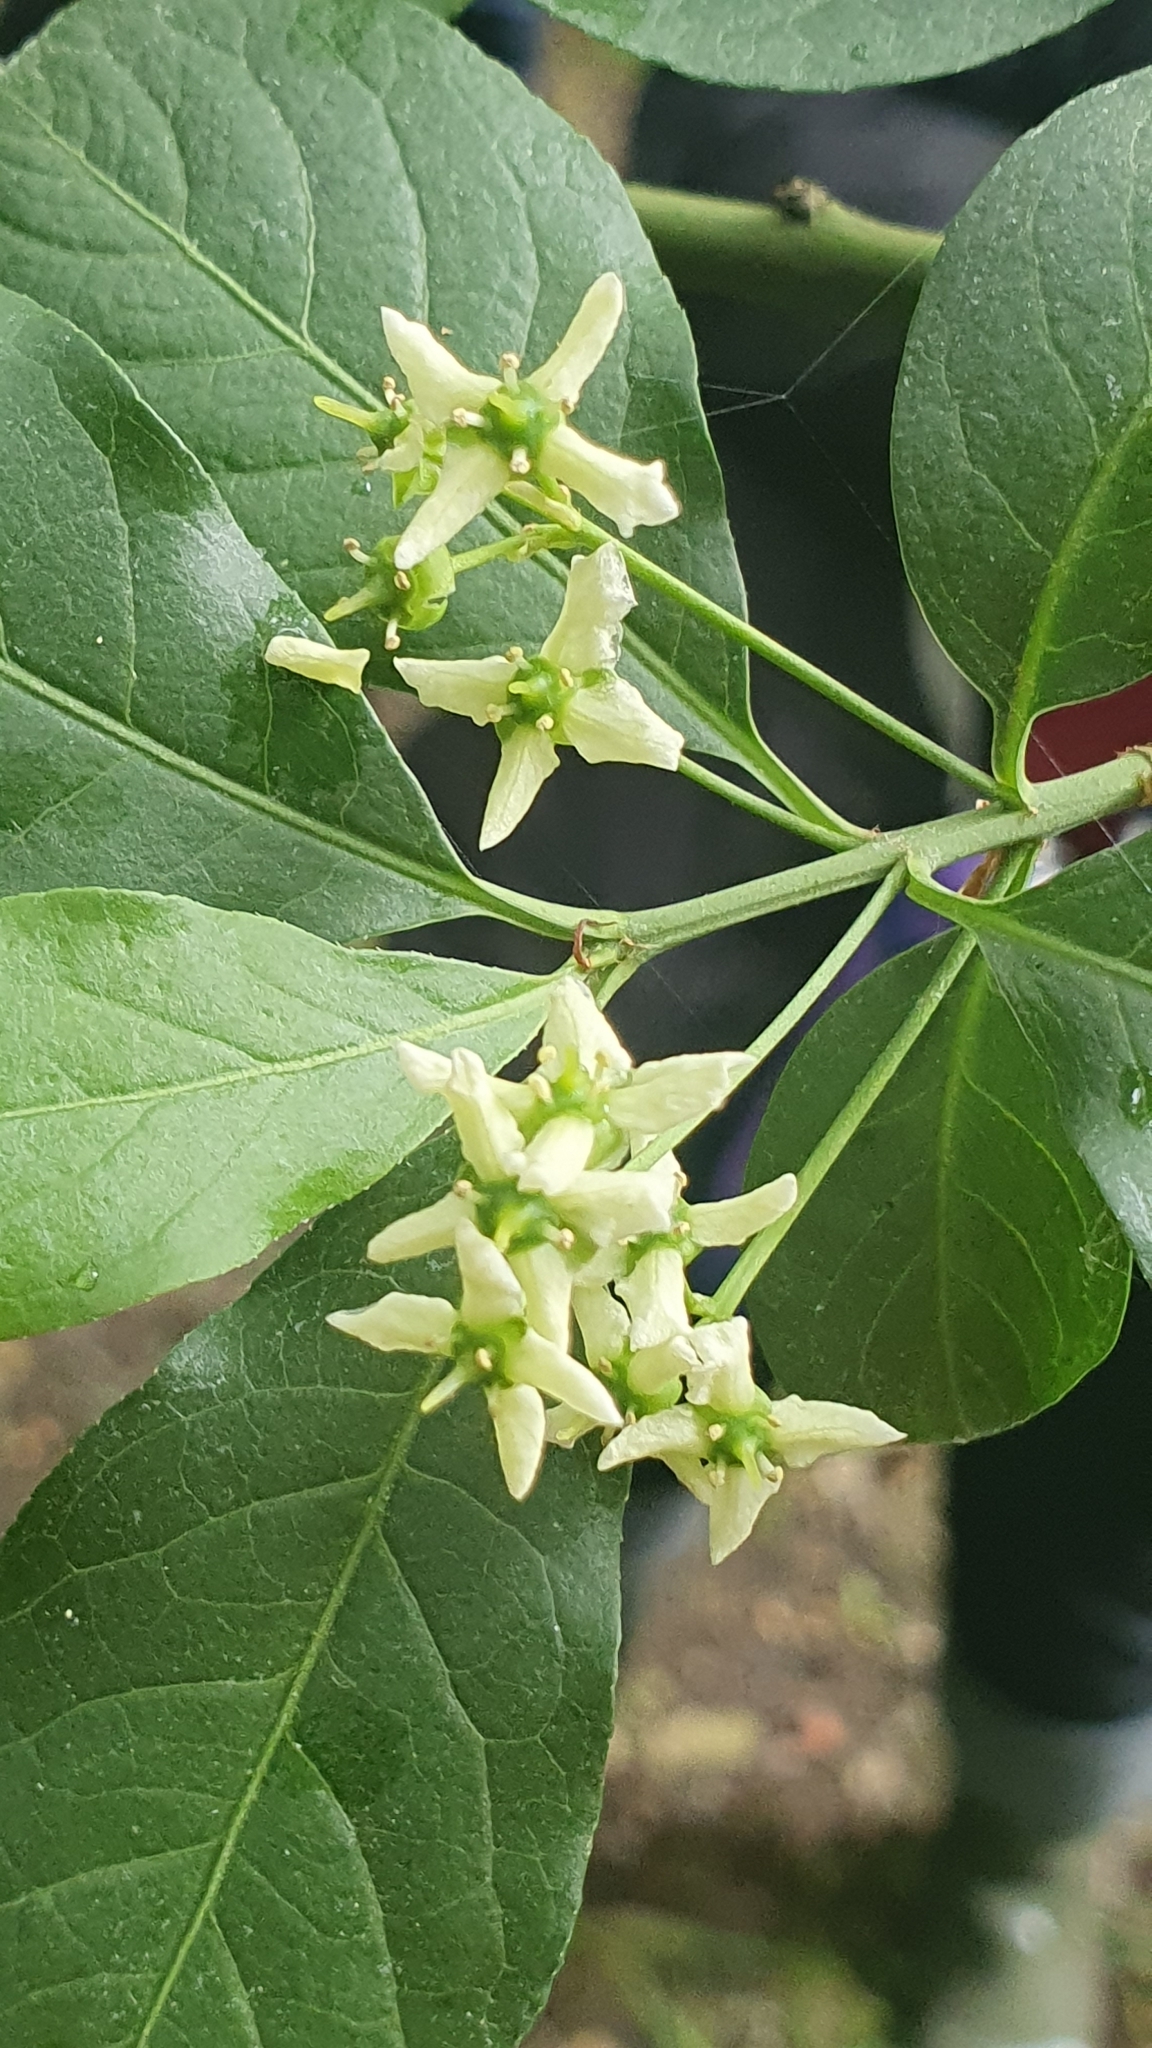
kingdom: Plantae
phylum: Tracheophyta
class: Magnoliopsida
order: Celastrales
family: Celastraceae
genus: Euonymus
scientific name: Euonymus europaeus
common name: Spindle
